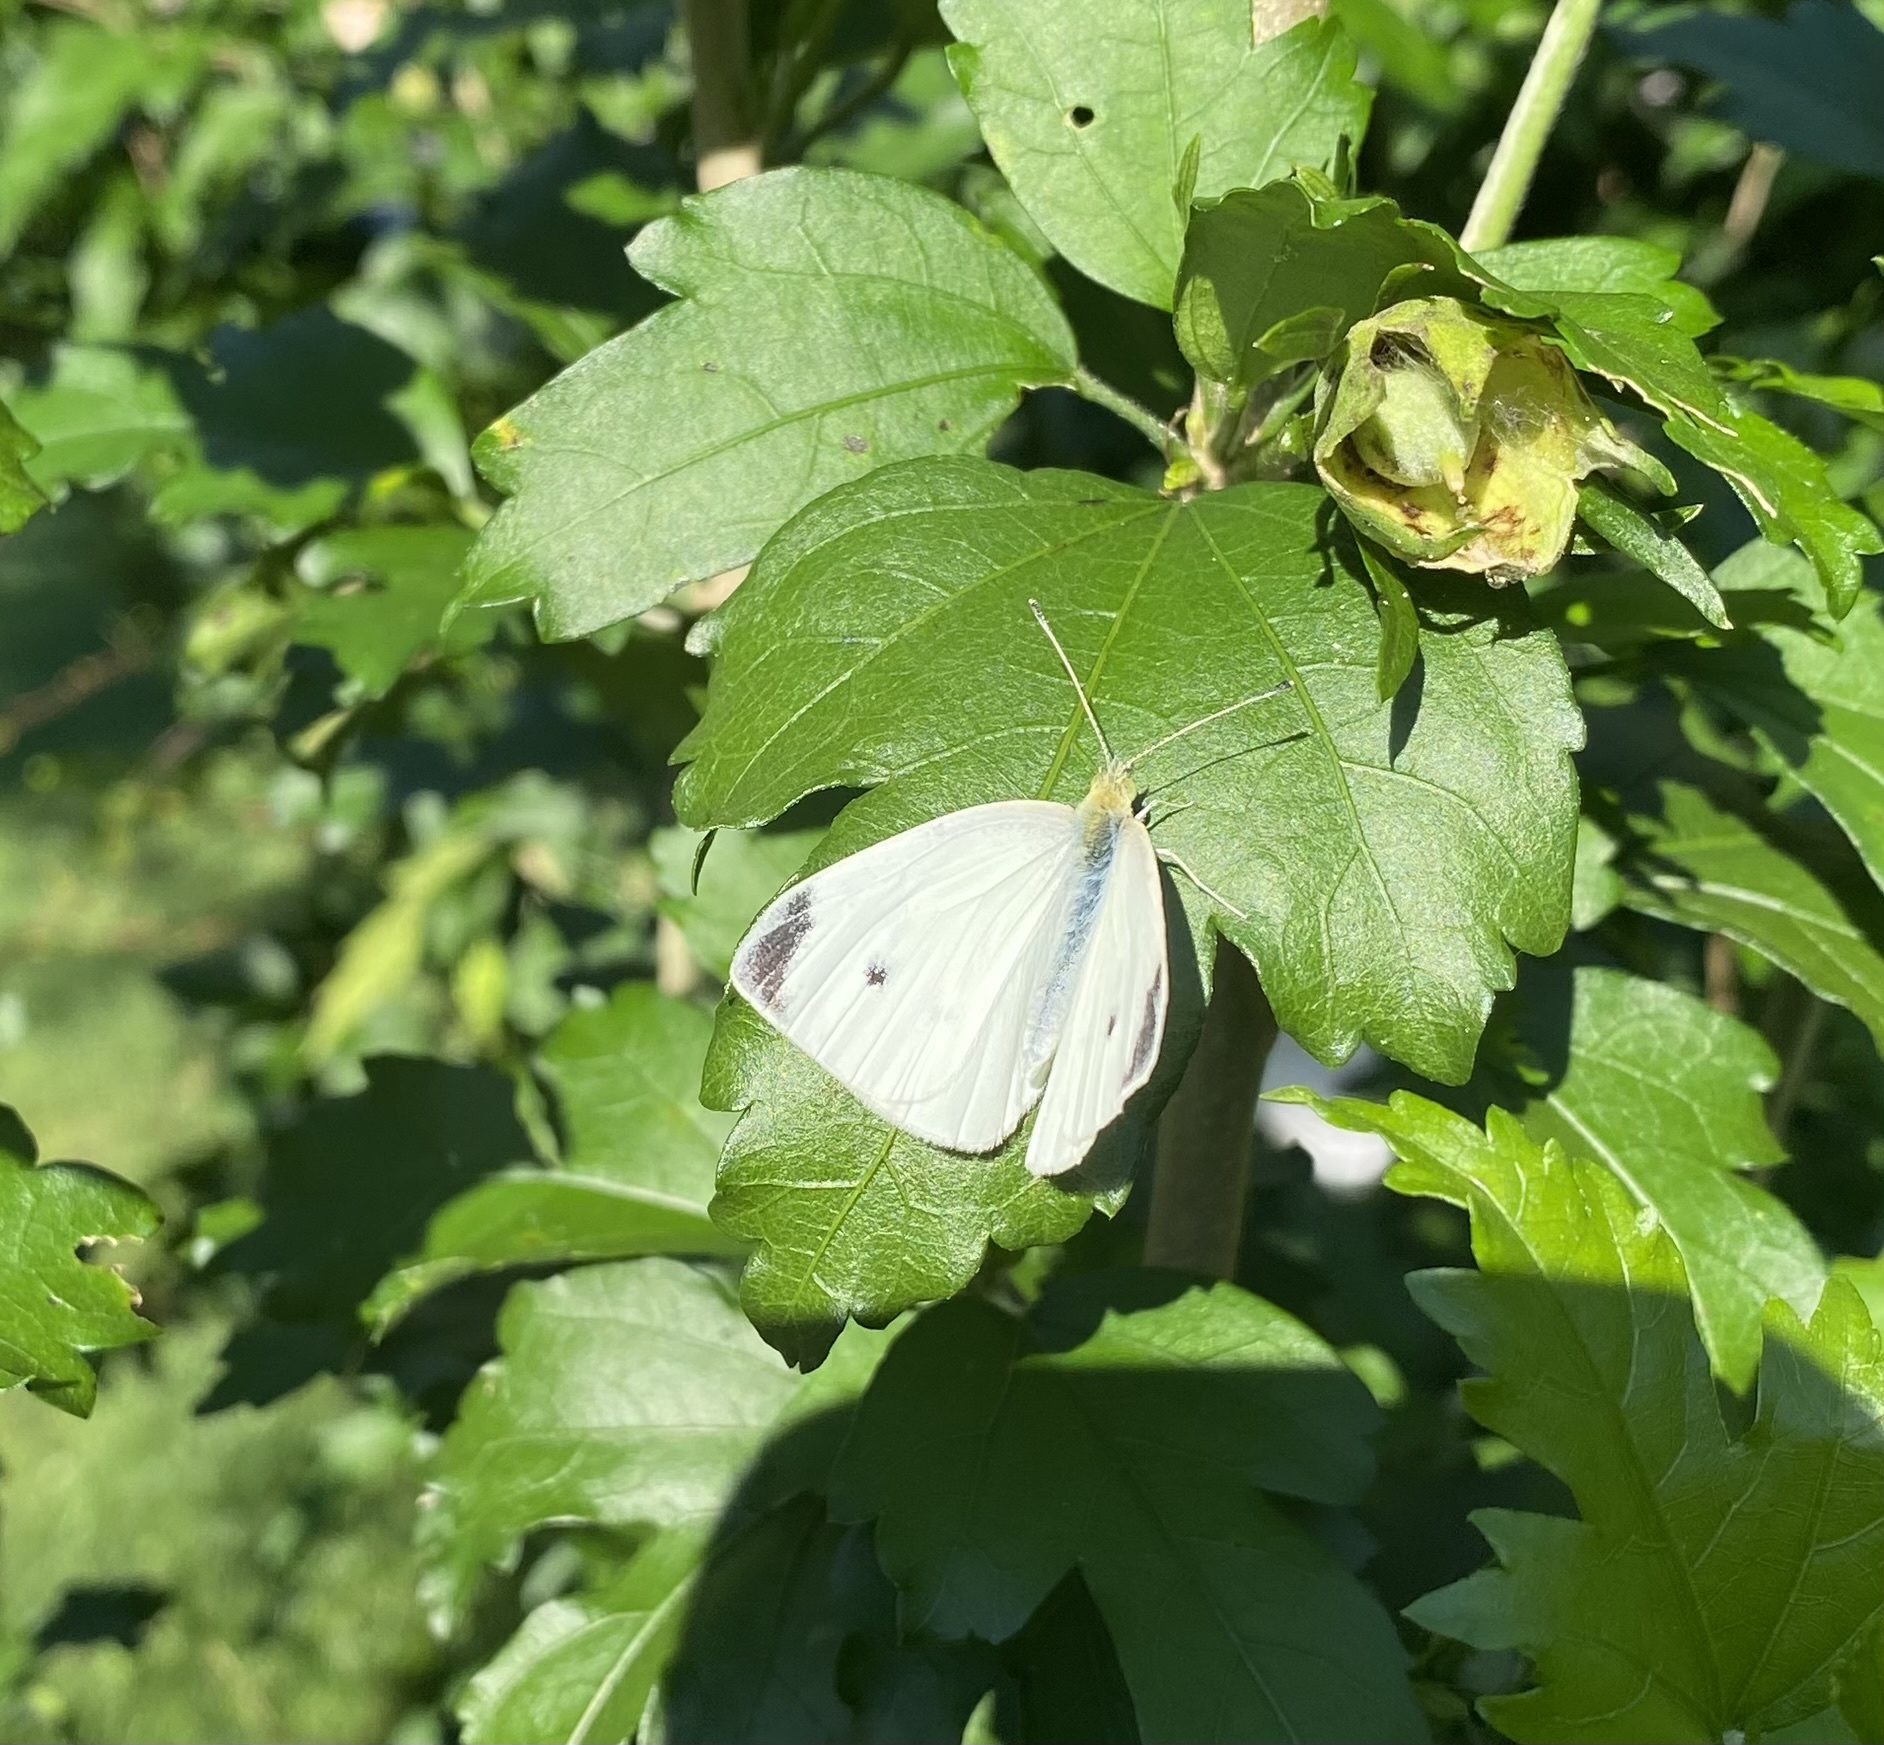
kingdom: Animalia
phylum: Arthropoda
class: Insecta
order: Lepidoptera
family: Pieridae
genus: Pieris
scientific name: Pieris rapae
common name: Small white
